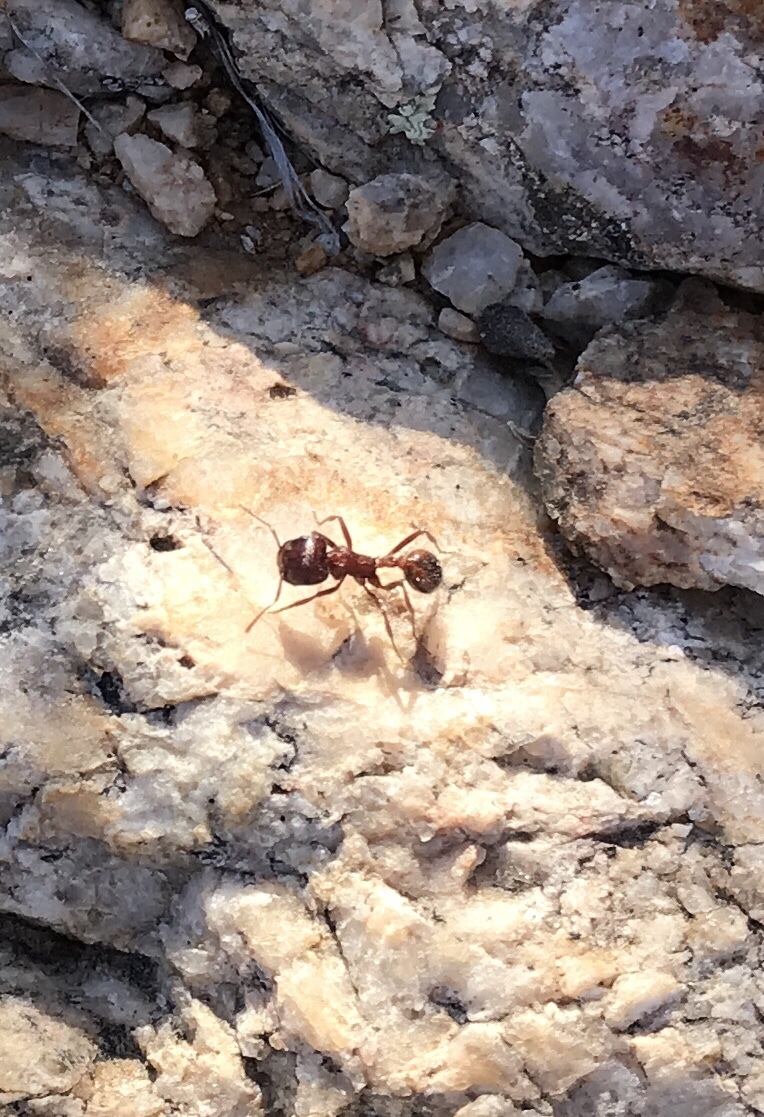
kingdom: Animalia
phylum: Arthropoda
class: Insecta
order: Hymenoptera
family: Formicidae
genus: Pogonomyrmex
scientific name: Pogonomyrmex rugosus
